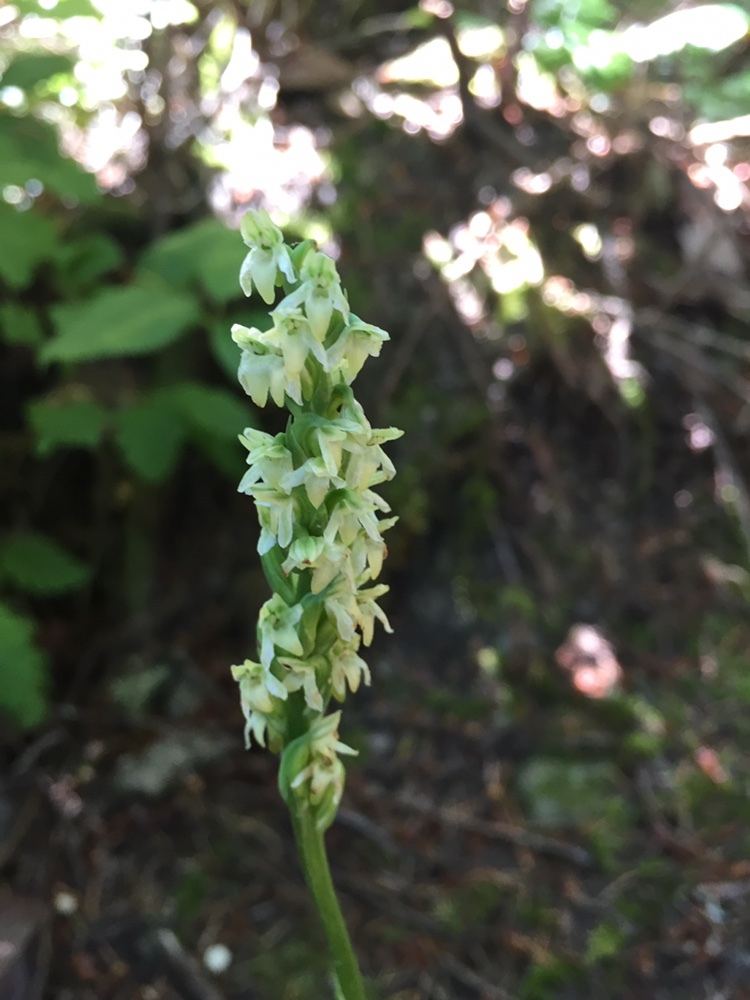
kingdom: Plantae
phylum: Tracheophyta
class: Liliopsida
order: Asparagales
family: Orchidaceae
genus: Platanthera
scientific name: Platanthera ephemerantha
